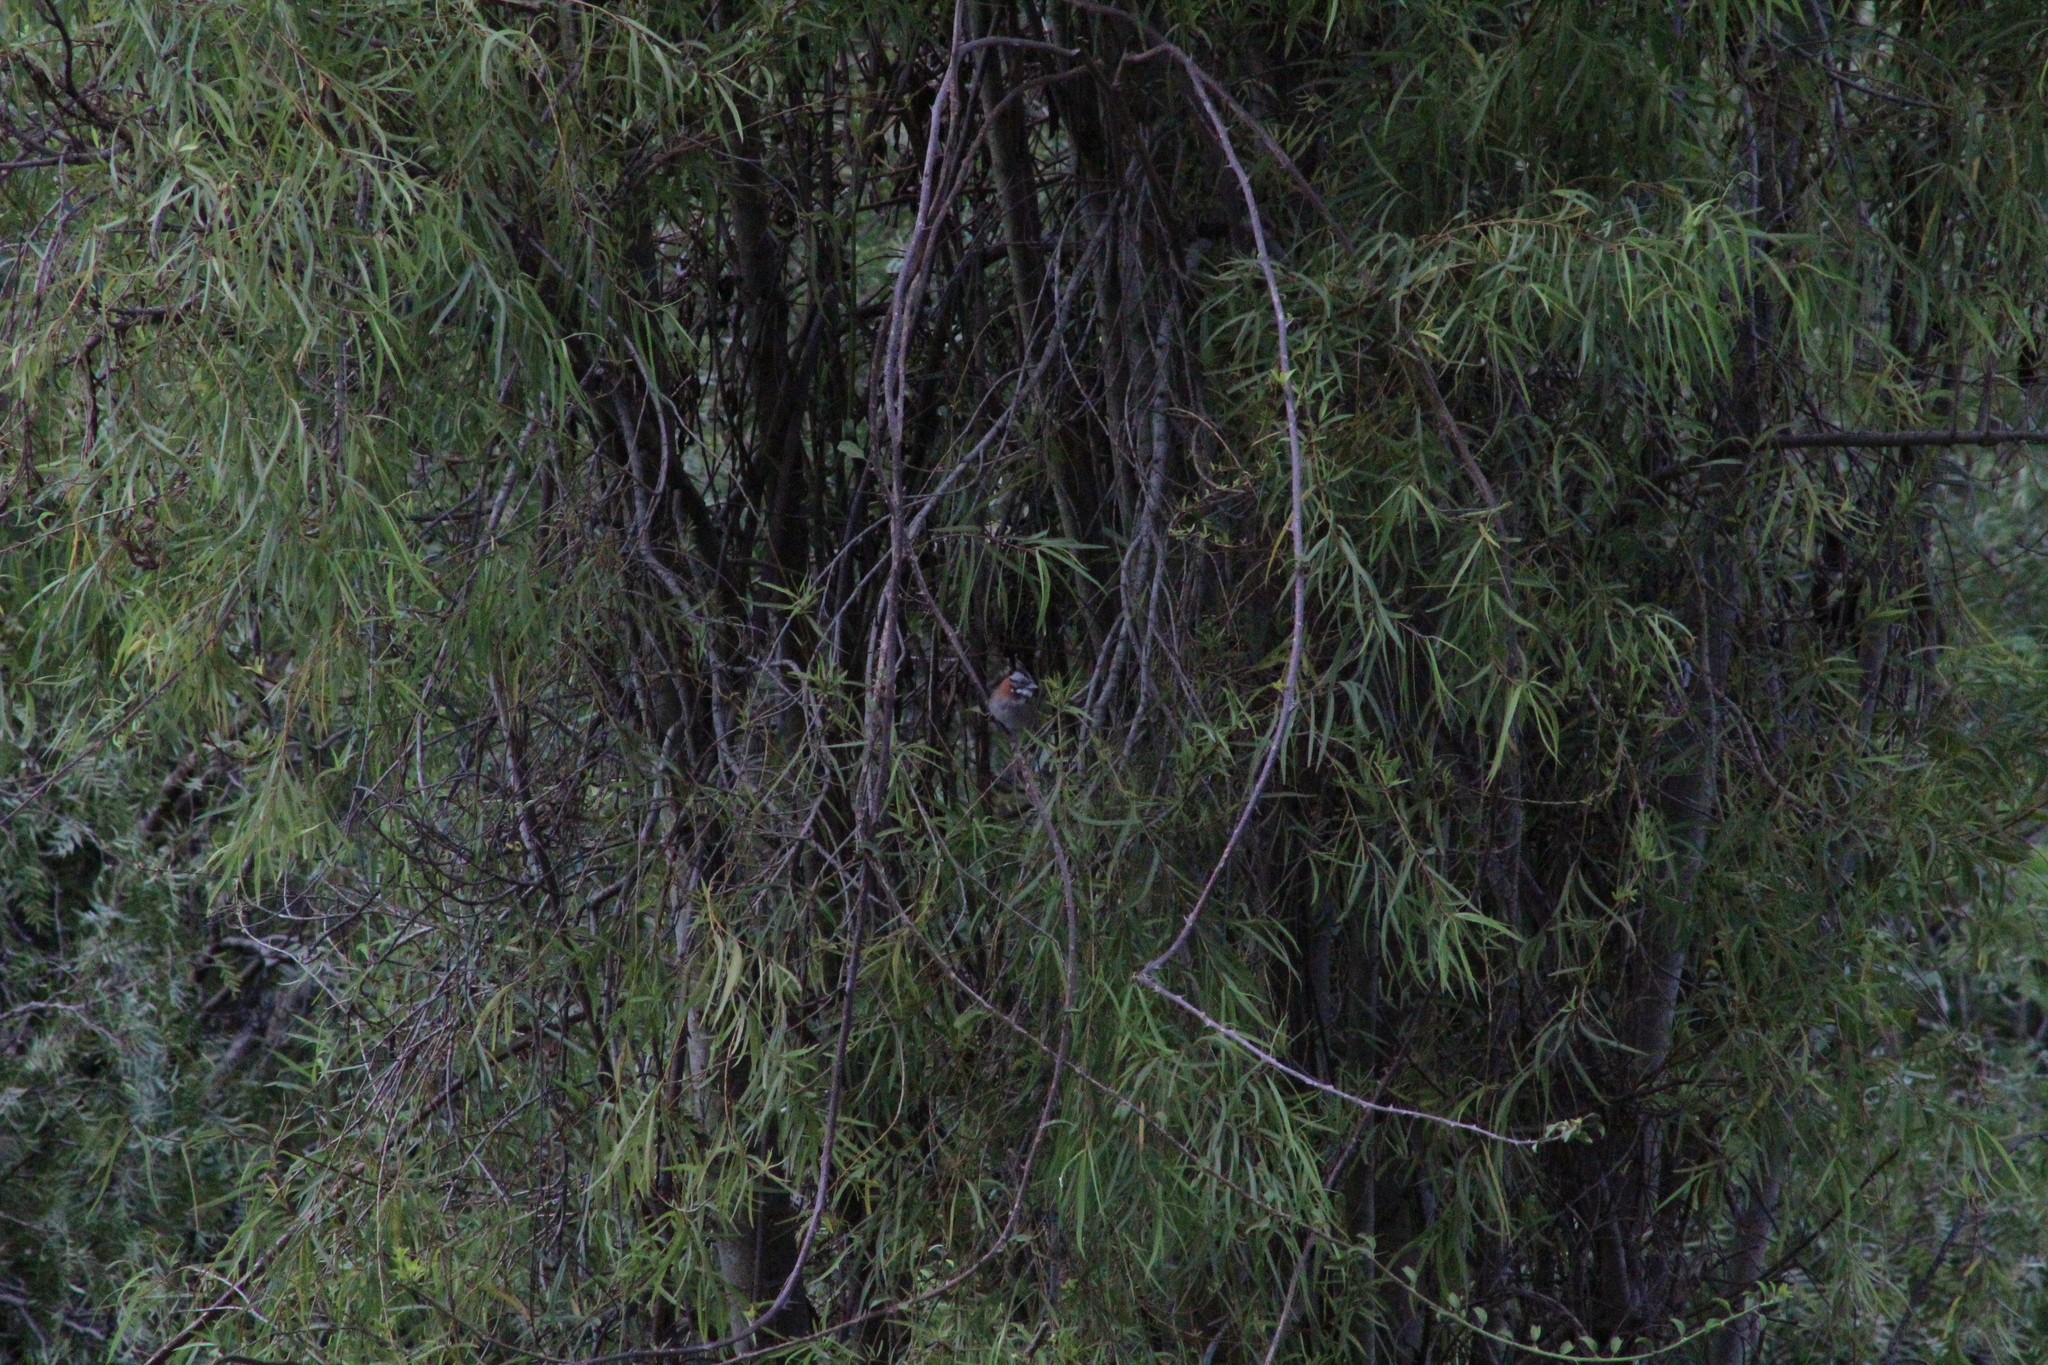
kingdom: Animalia
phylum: Chordata
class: Aves
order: Passeriformes
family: Passerellidae
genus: Zonotrichia
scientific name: Zonotrichia capensis
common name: Rufous-collared sparrow
